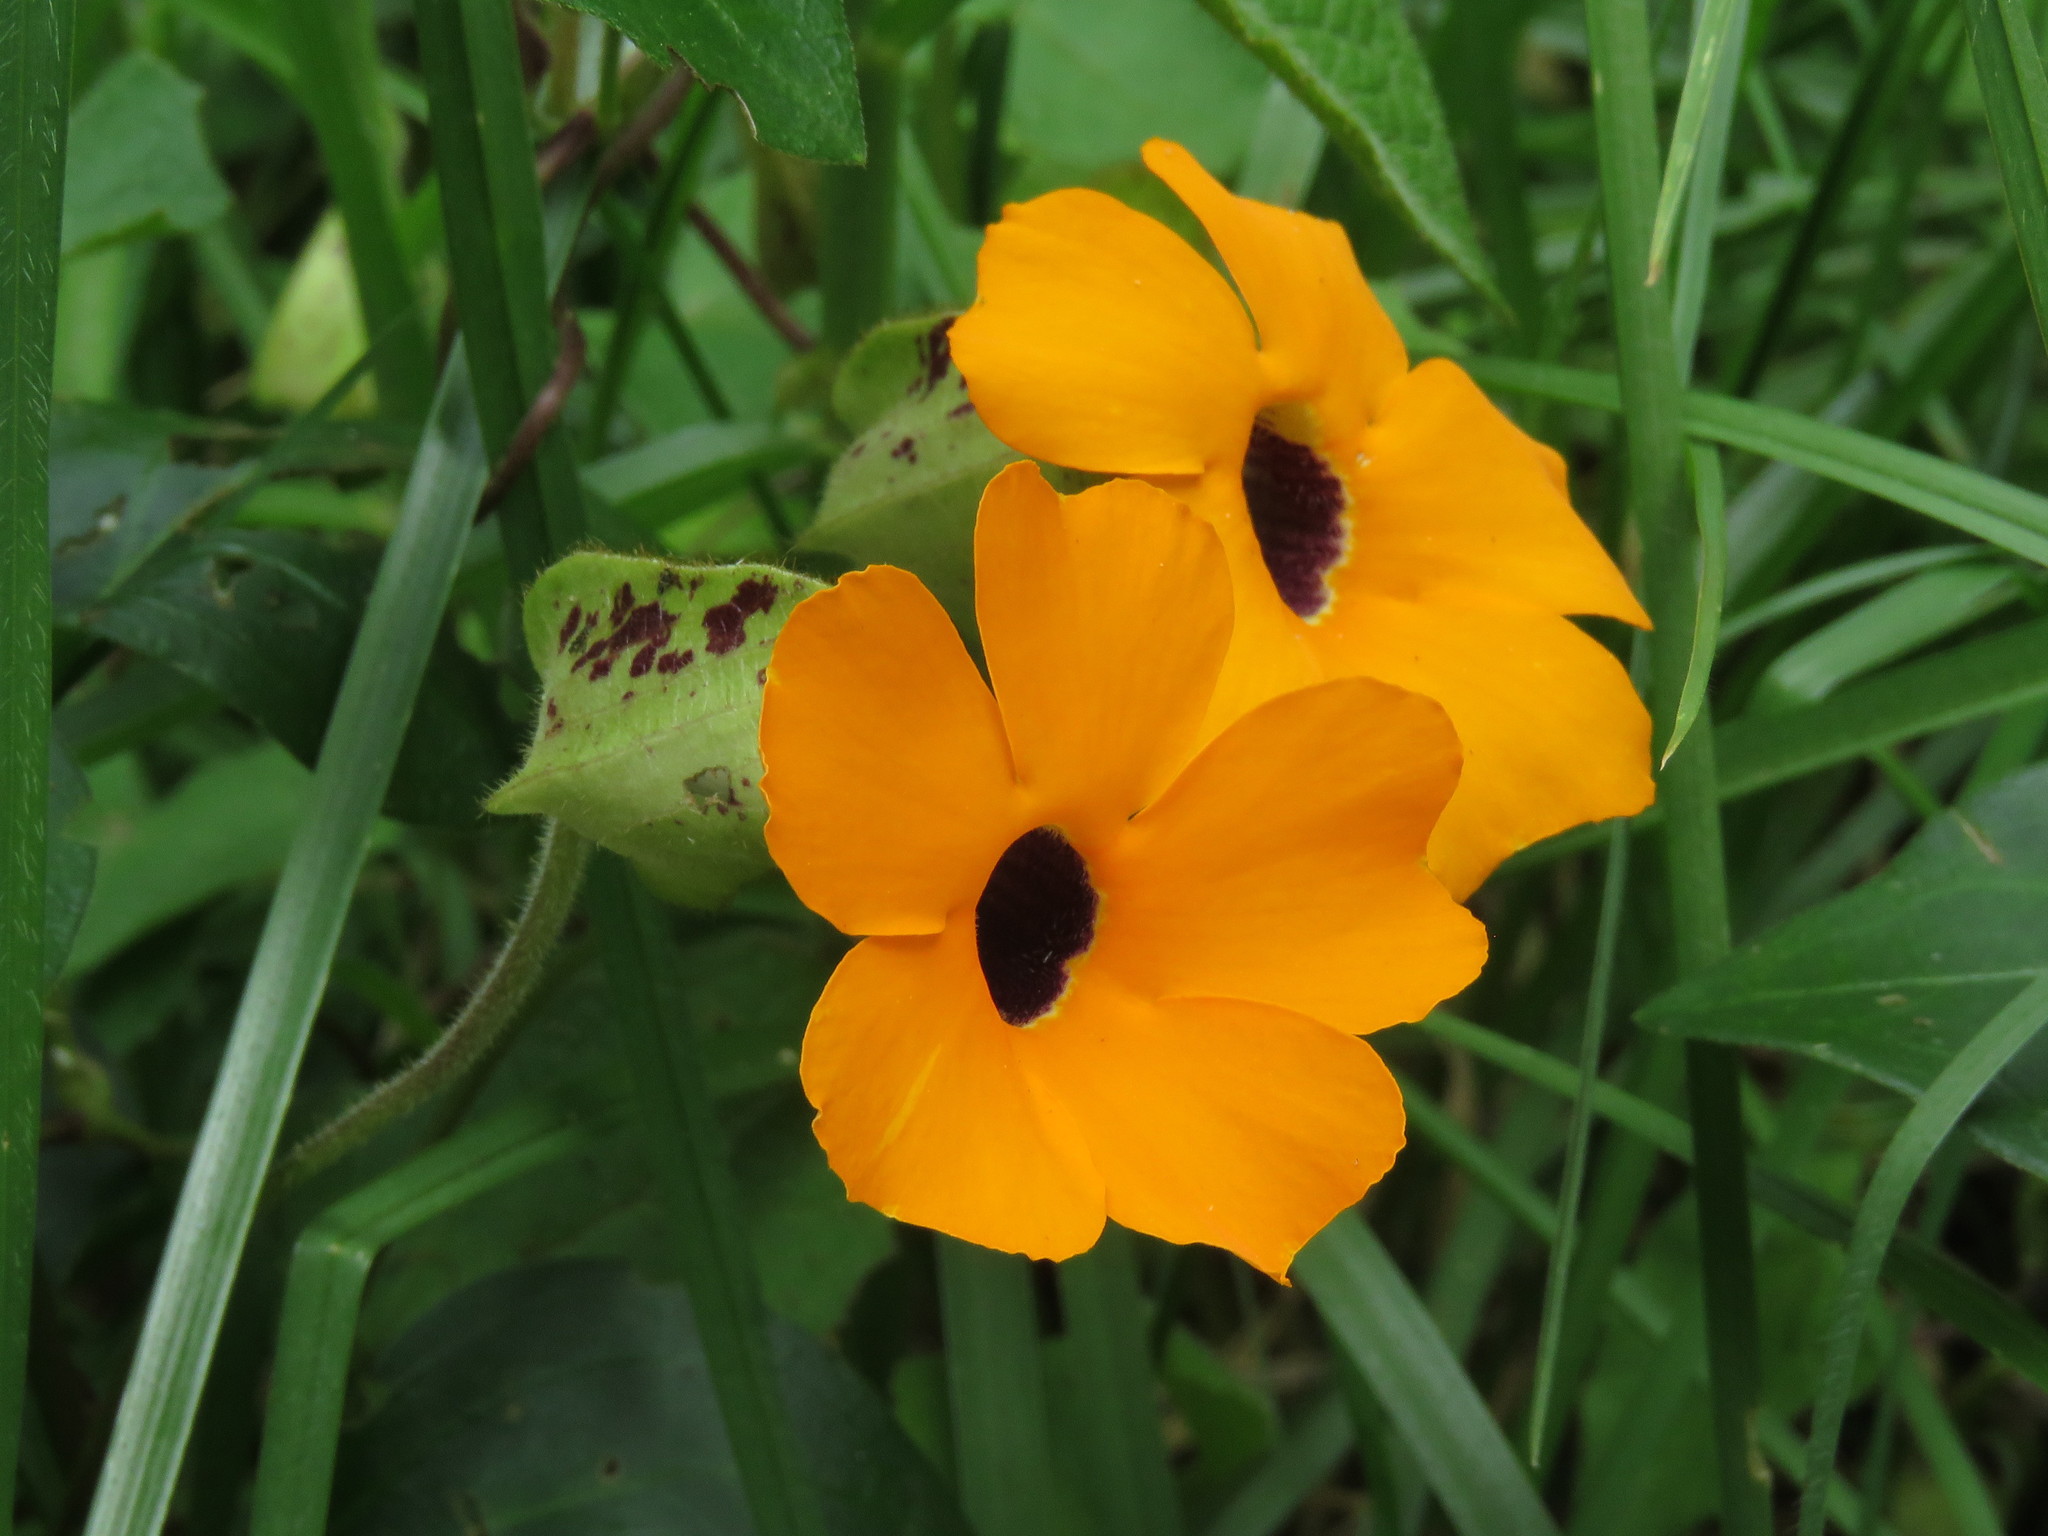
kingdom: Plantae
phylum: Tracheophyta
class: Magnoliopsida
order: Lamiales
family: Acanthaceae
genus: Thunbergia
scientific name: Thunbergia alata
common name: Blackeyed susan vine
